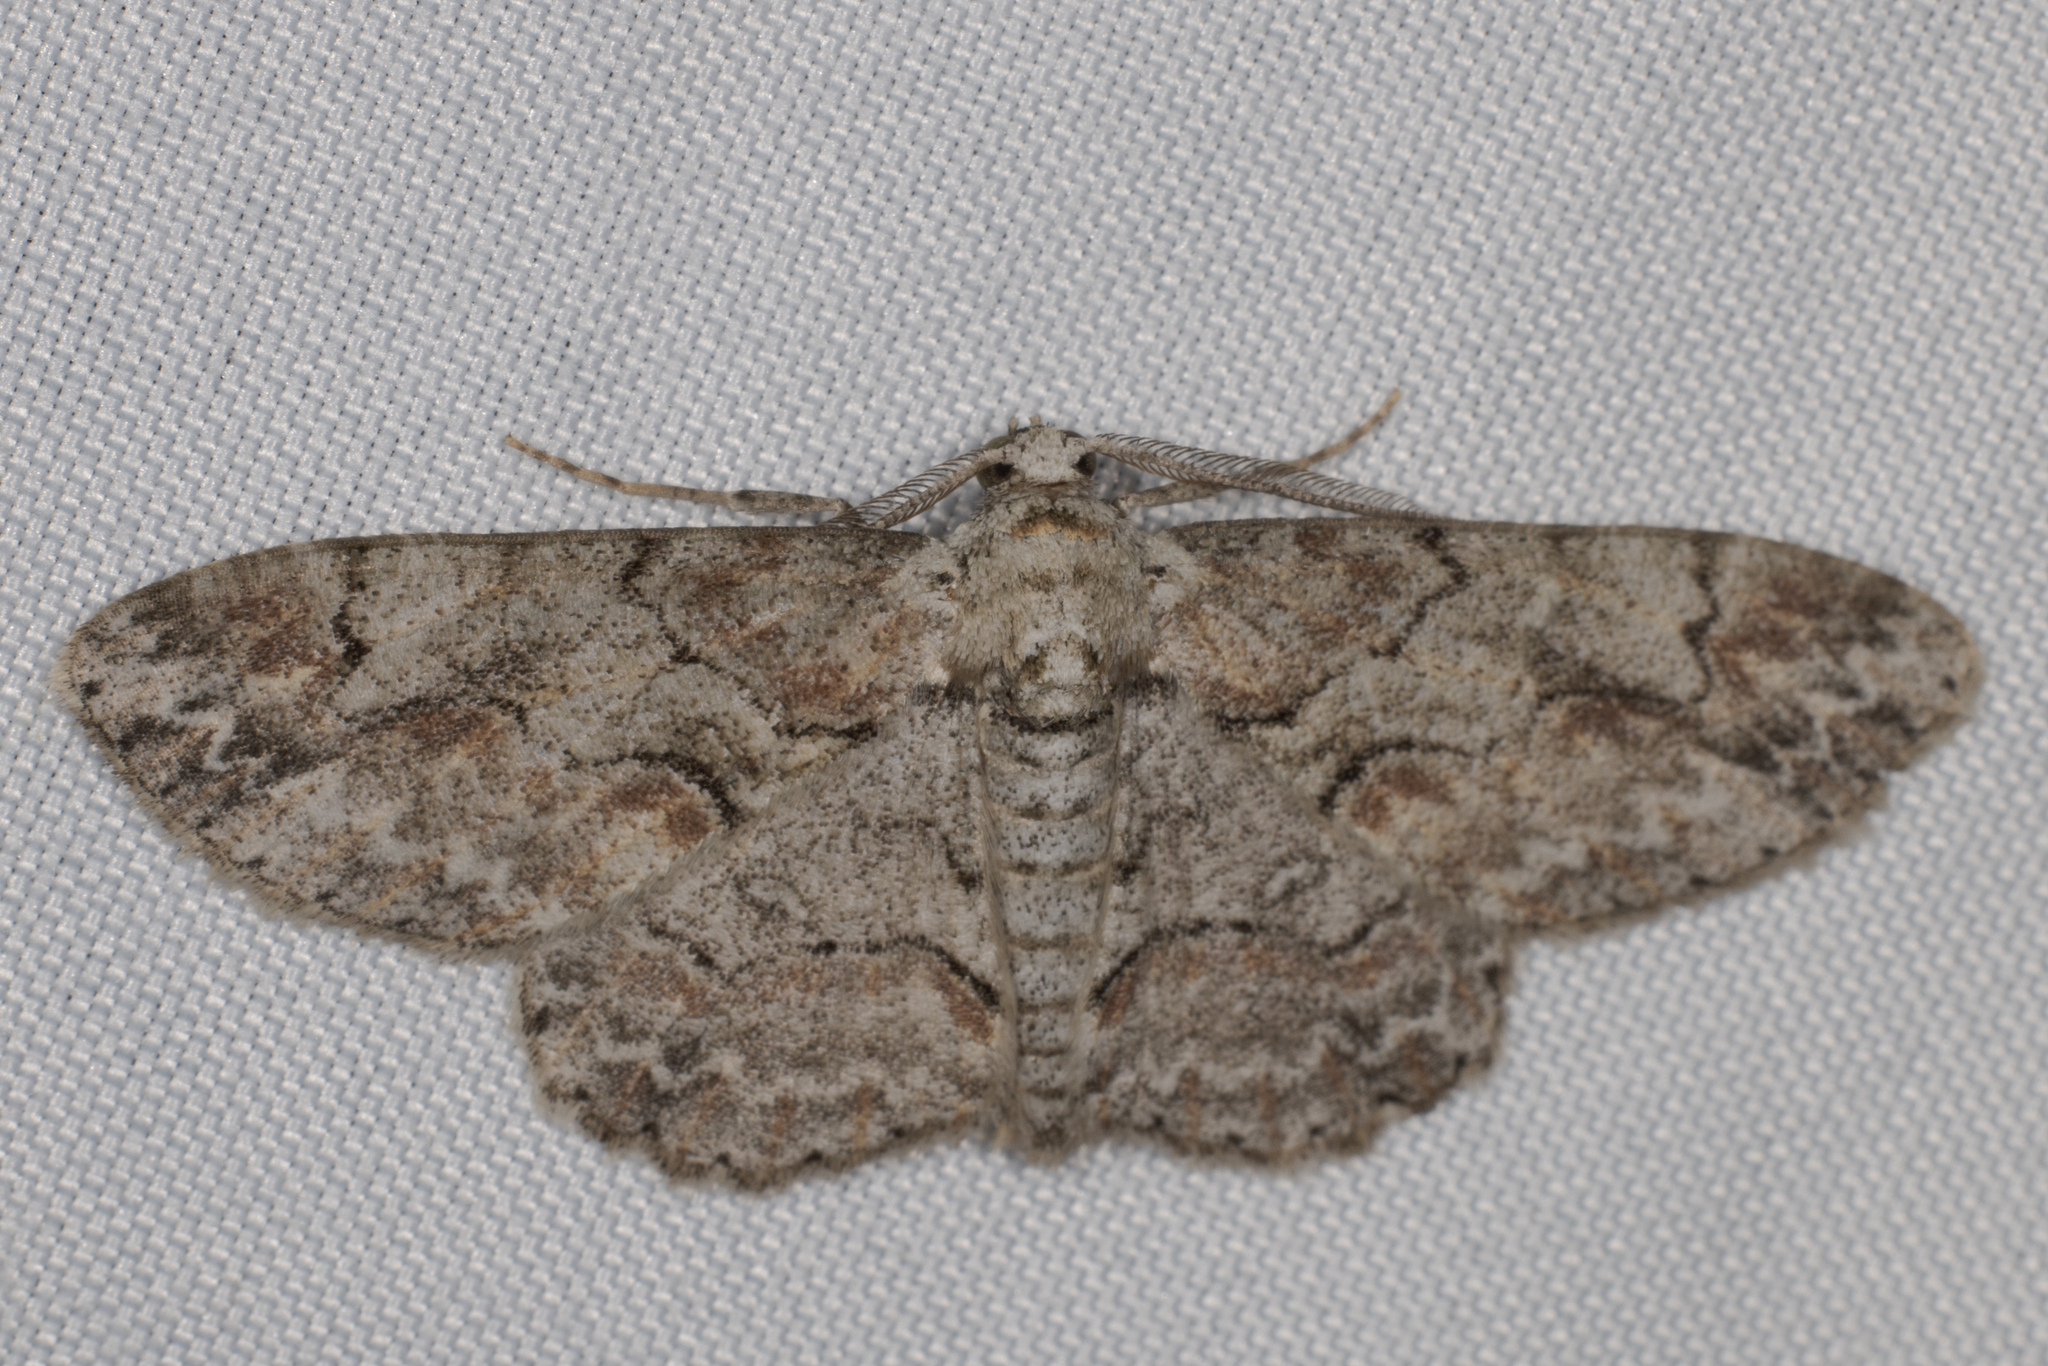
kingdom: Animalia
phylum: Arthropoda
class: Insecta
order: Lepidoptera
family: Geometridae
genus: Iridopsis
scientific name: Iridopsis defectaria
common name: Brown-shaded gray
